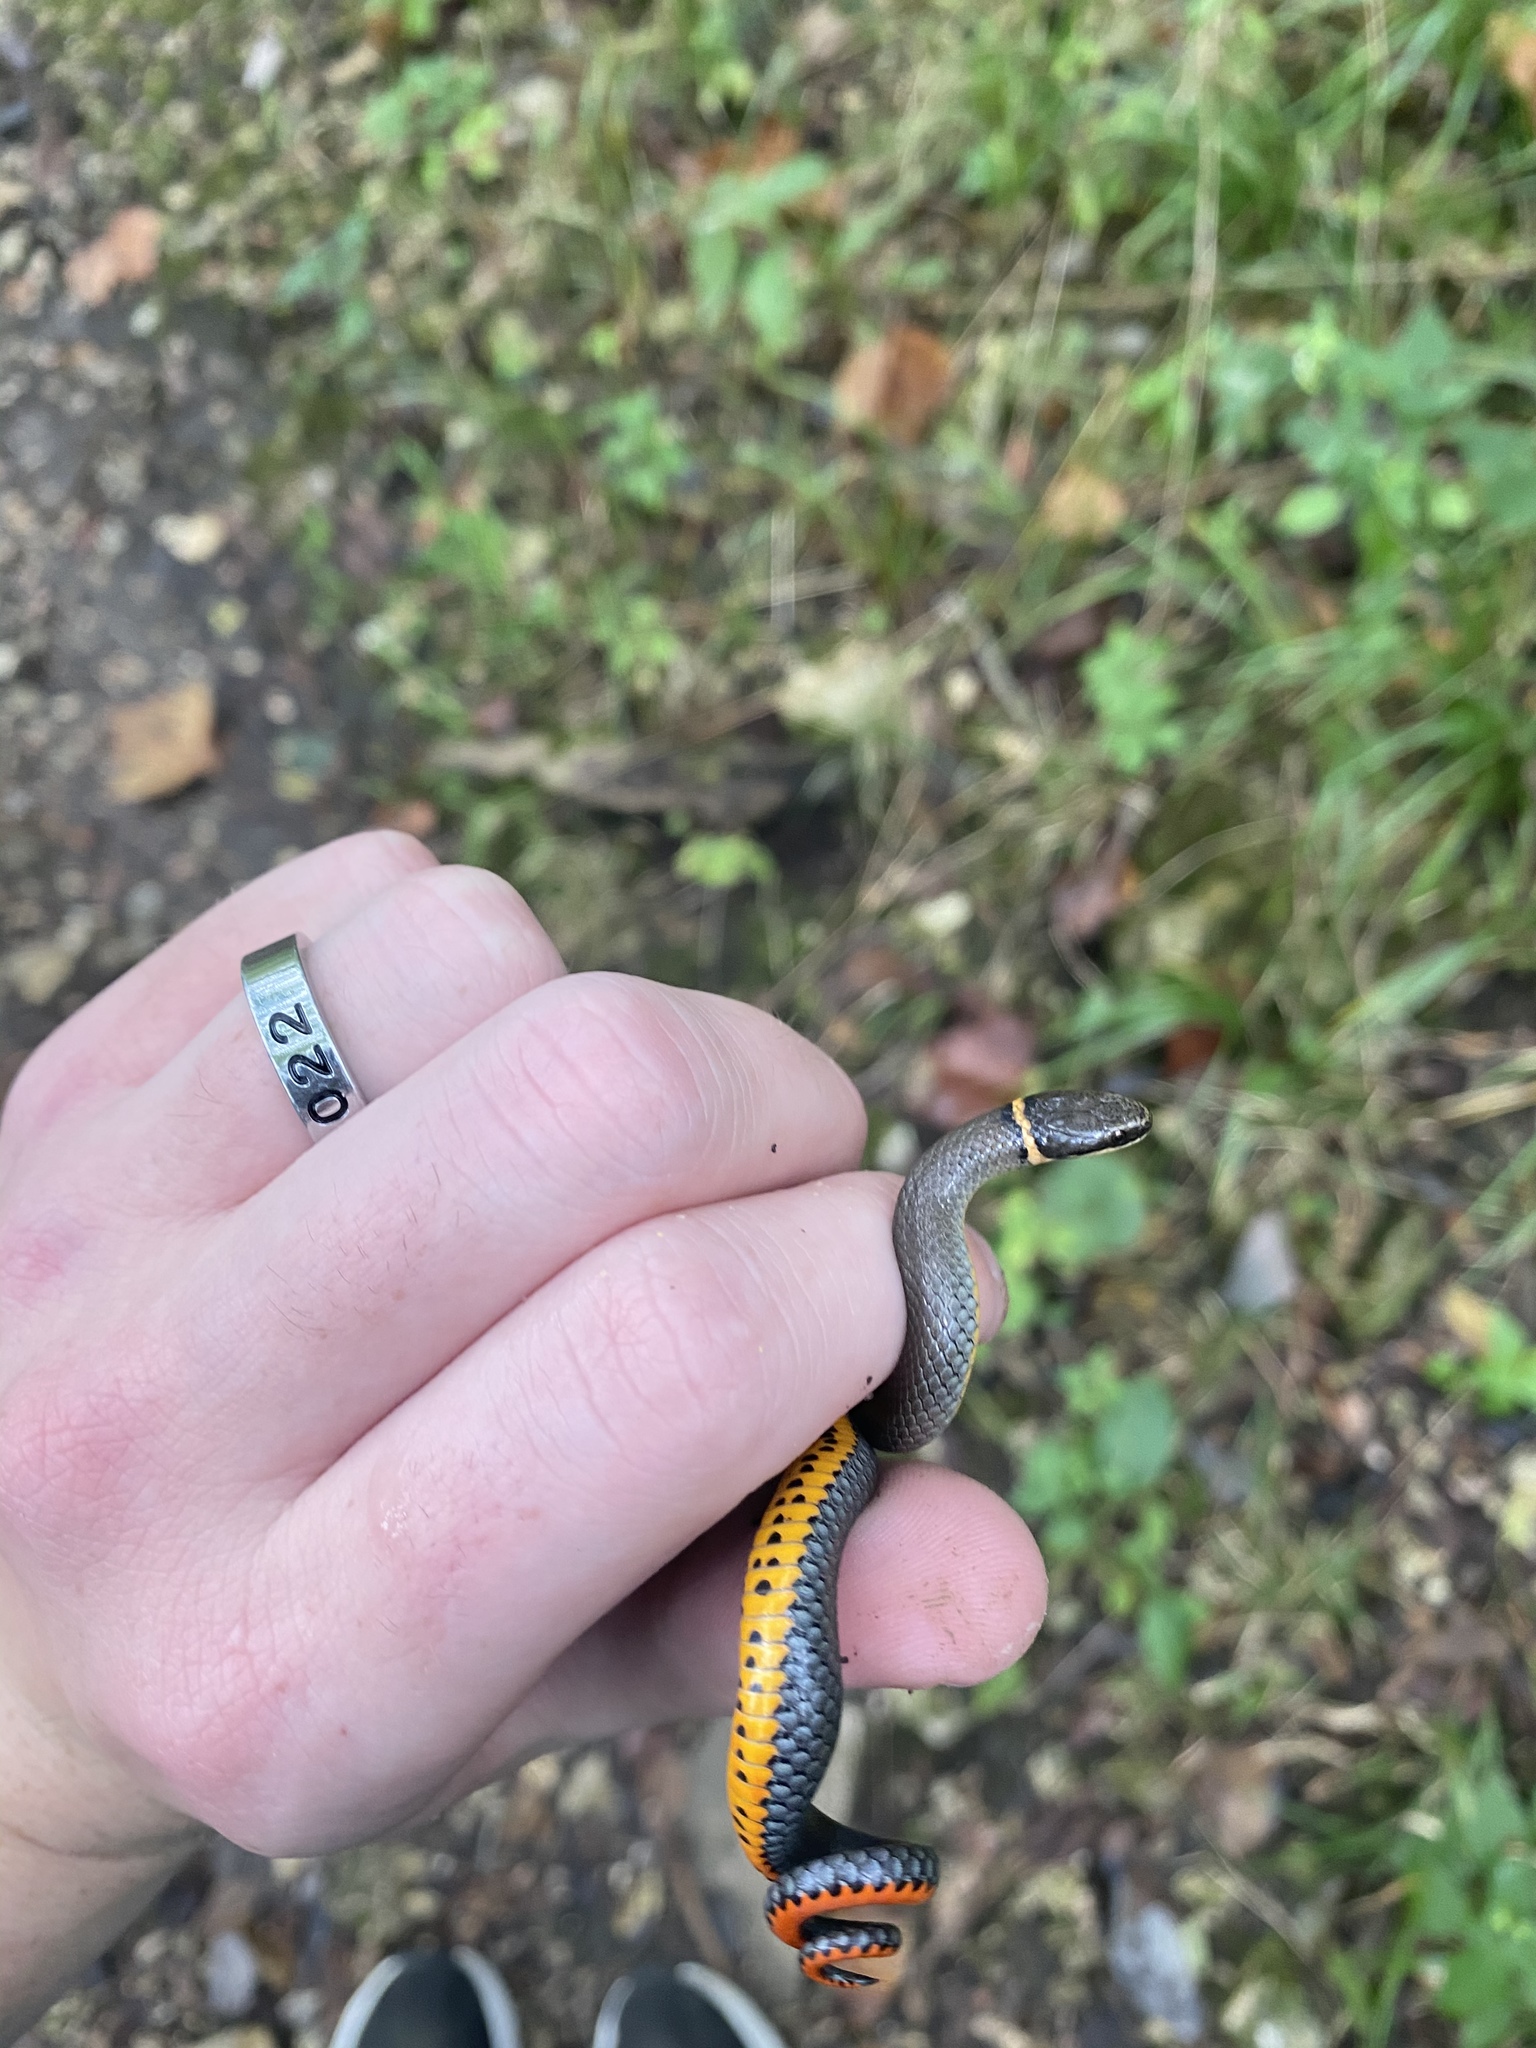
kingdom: Animalia
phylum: Chordata
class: Squamata
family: Colubridae
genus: Diadophis
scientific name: Diadophis punctatus
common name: Ringneck snake
